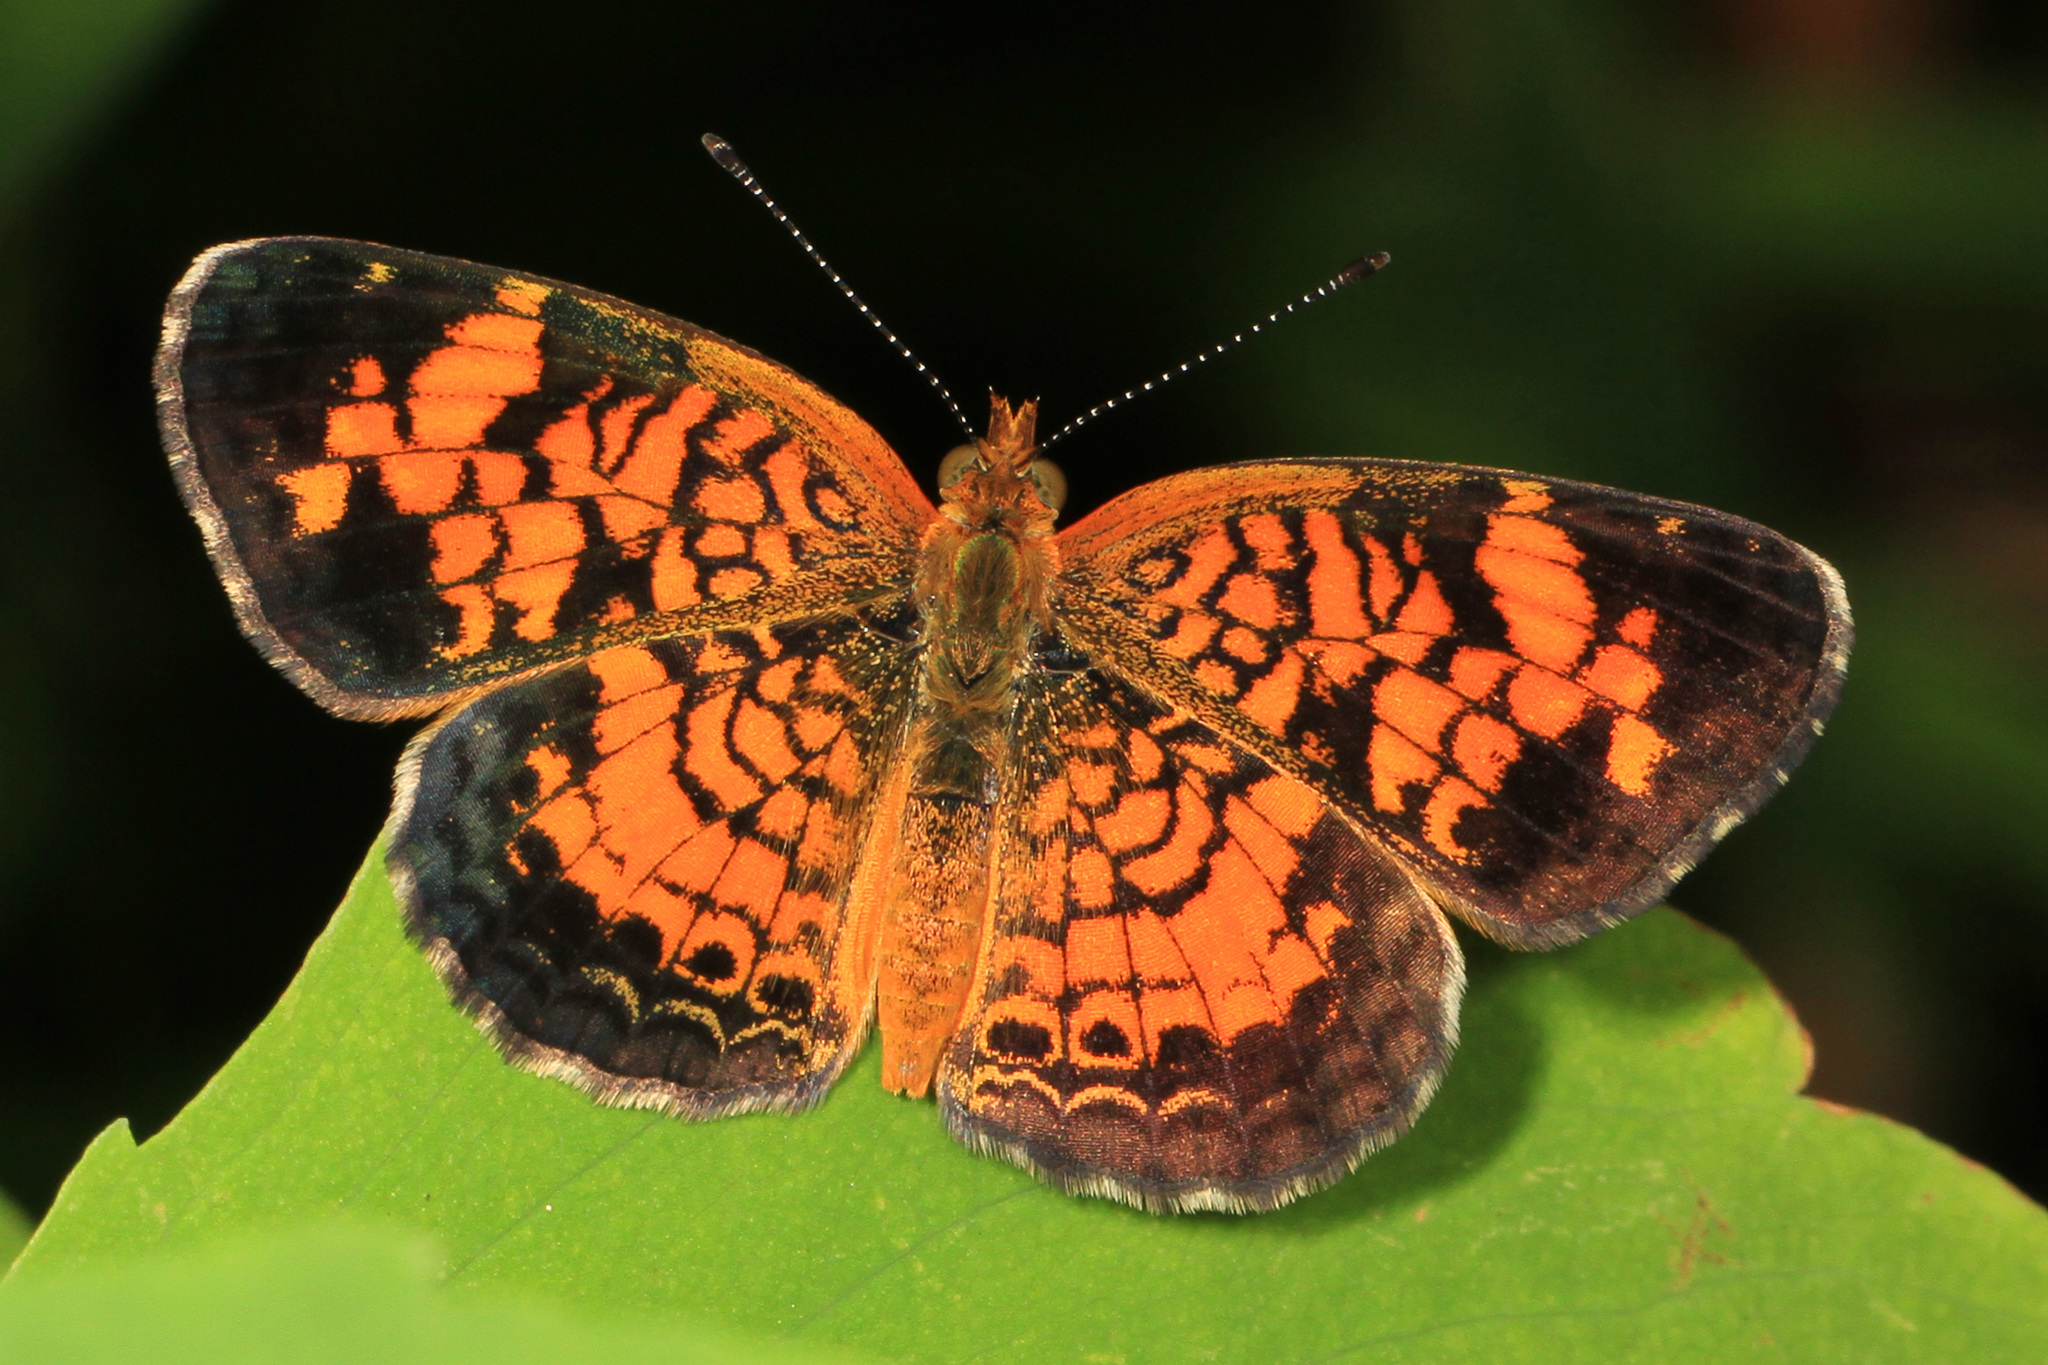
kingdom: Animalia
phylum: Arthropoda
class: Insecta
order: Lepidoptera
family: Nymphalidae
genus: Phyciodes
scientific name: Phyciodes tharos
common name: Pearl crescent
